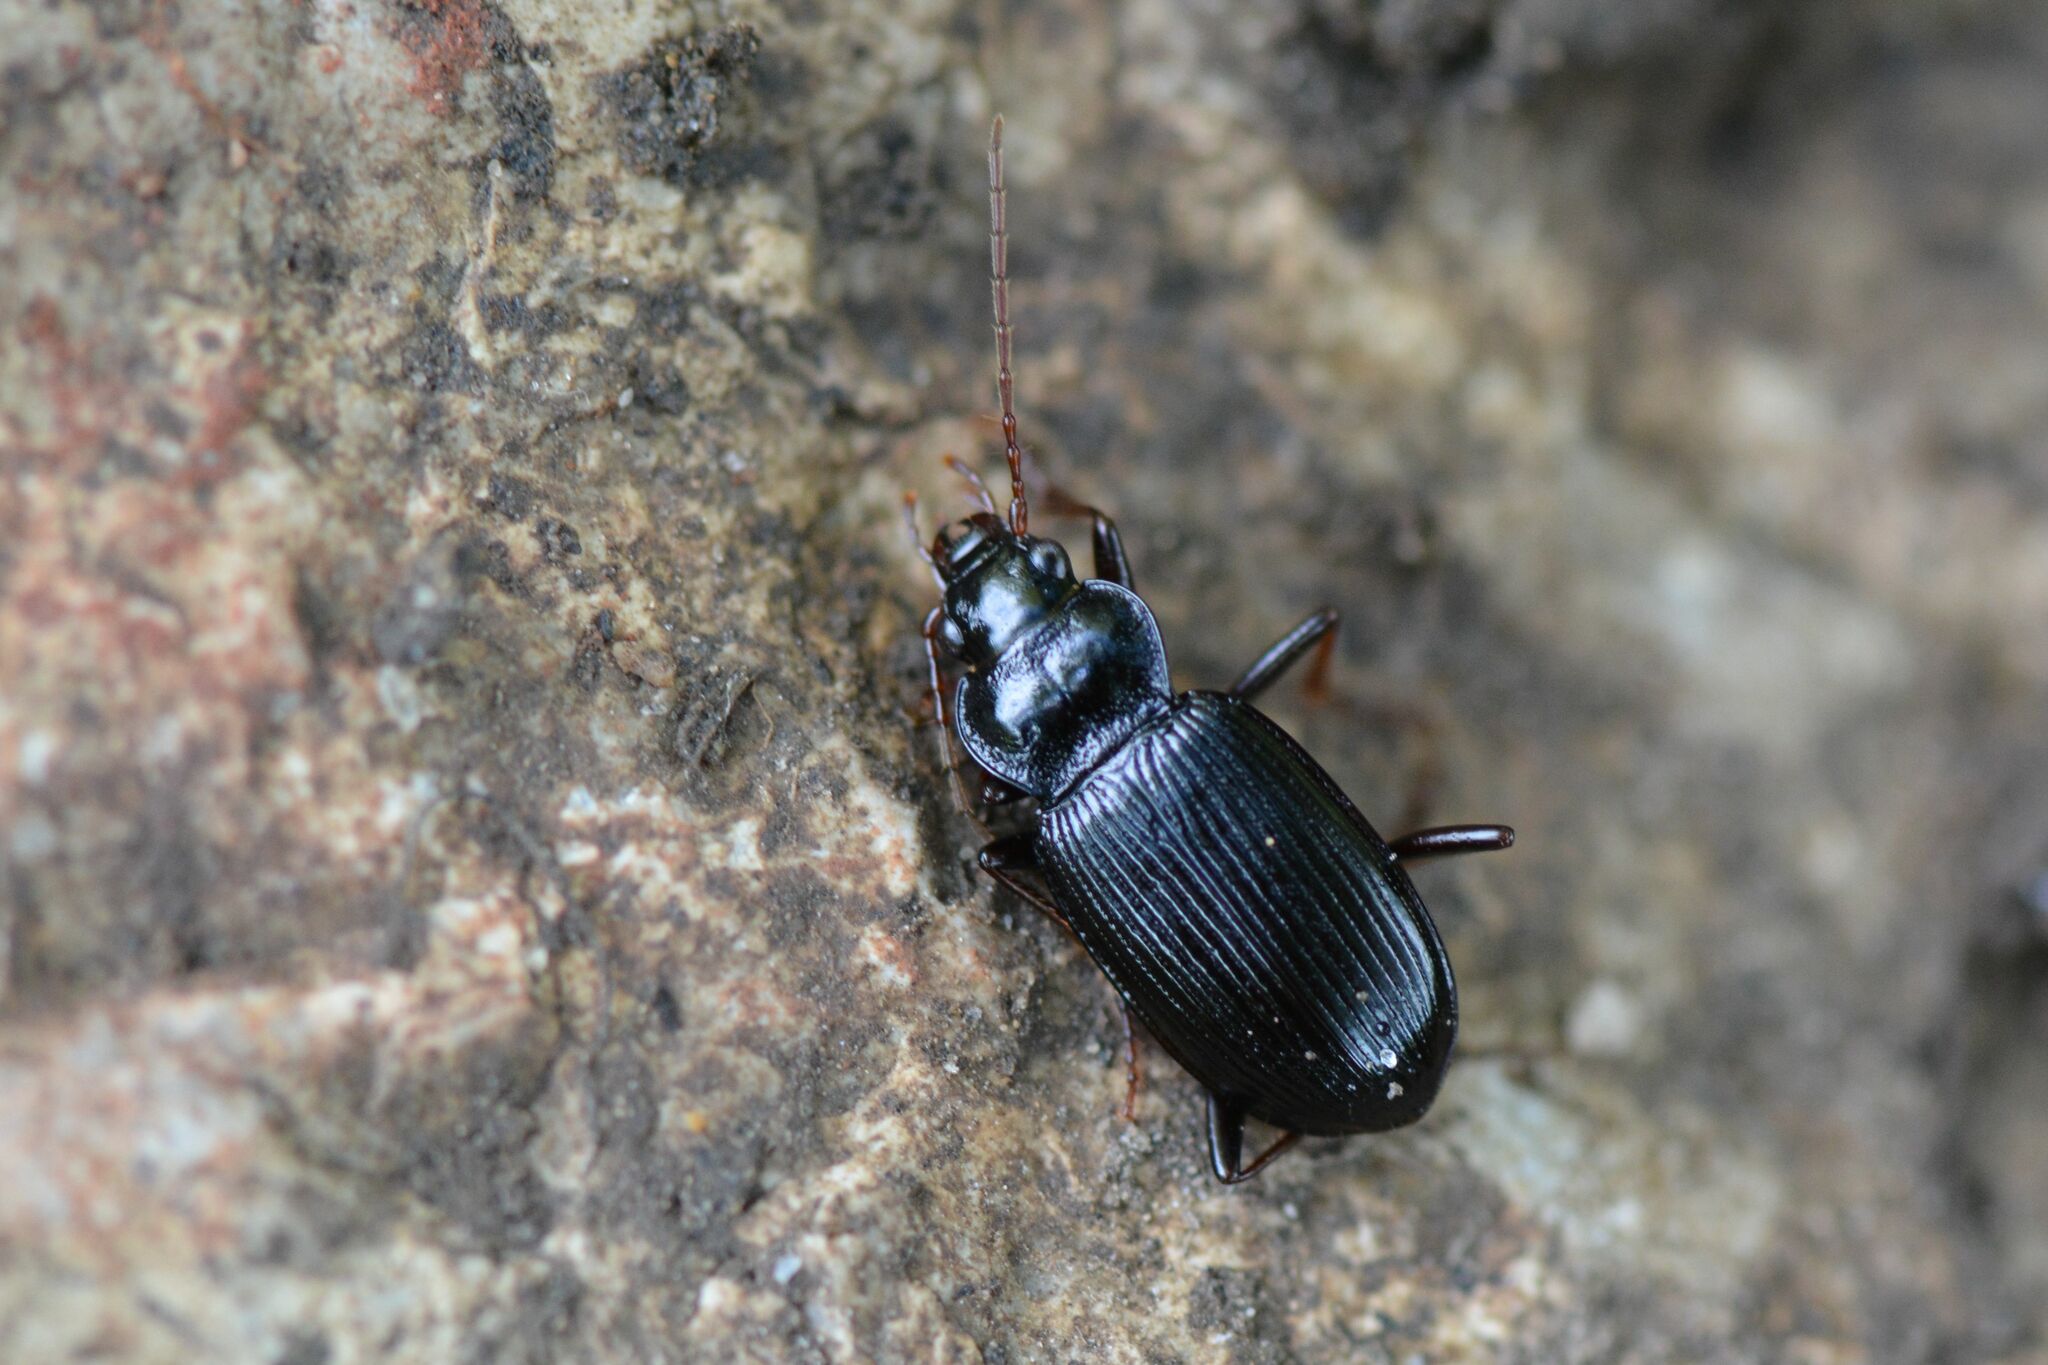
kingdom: Animalia
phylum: Arthropoda
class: Insecta
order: Coleoptera
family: Carabidae
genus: Nebria
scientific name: Nebria brevicollis
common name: Short-necked gazelle beetle
